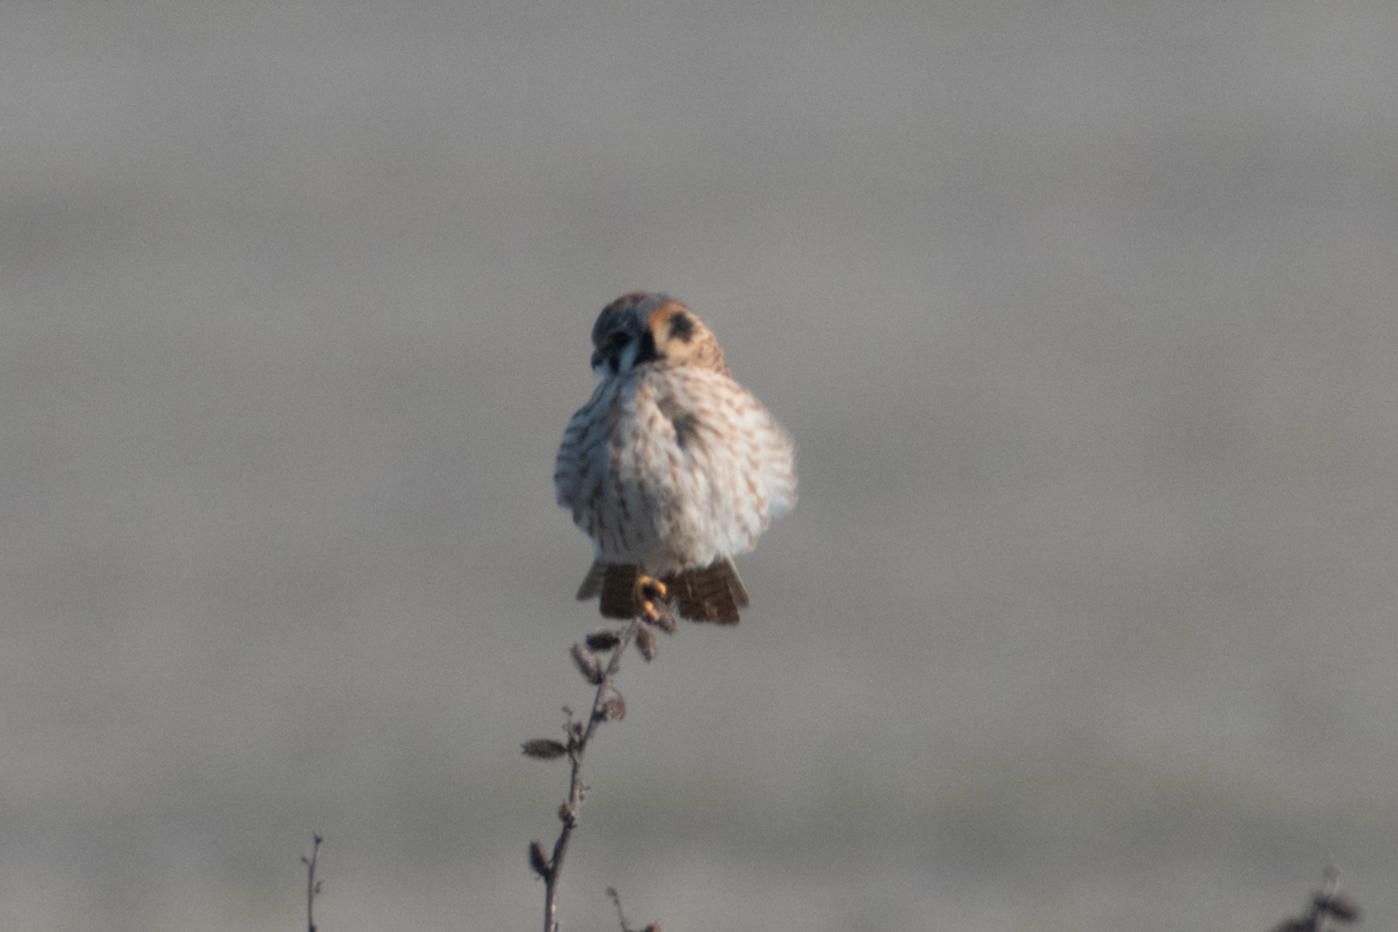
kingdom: Animalia
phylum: Chordata
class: Aves
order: Falconiformes
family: Falconidae
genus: Falco
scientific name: Falco sparverius
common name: American kestrel
